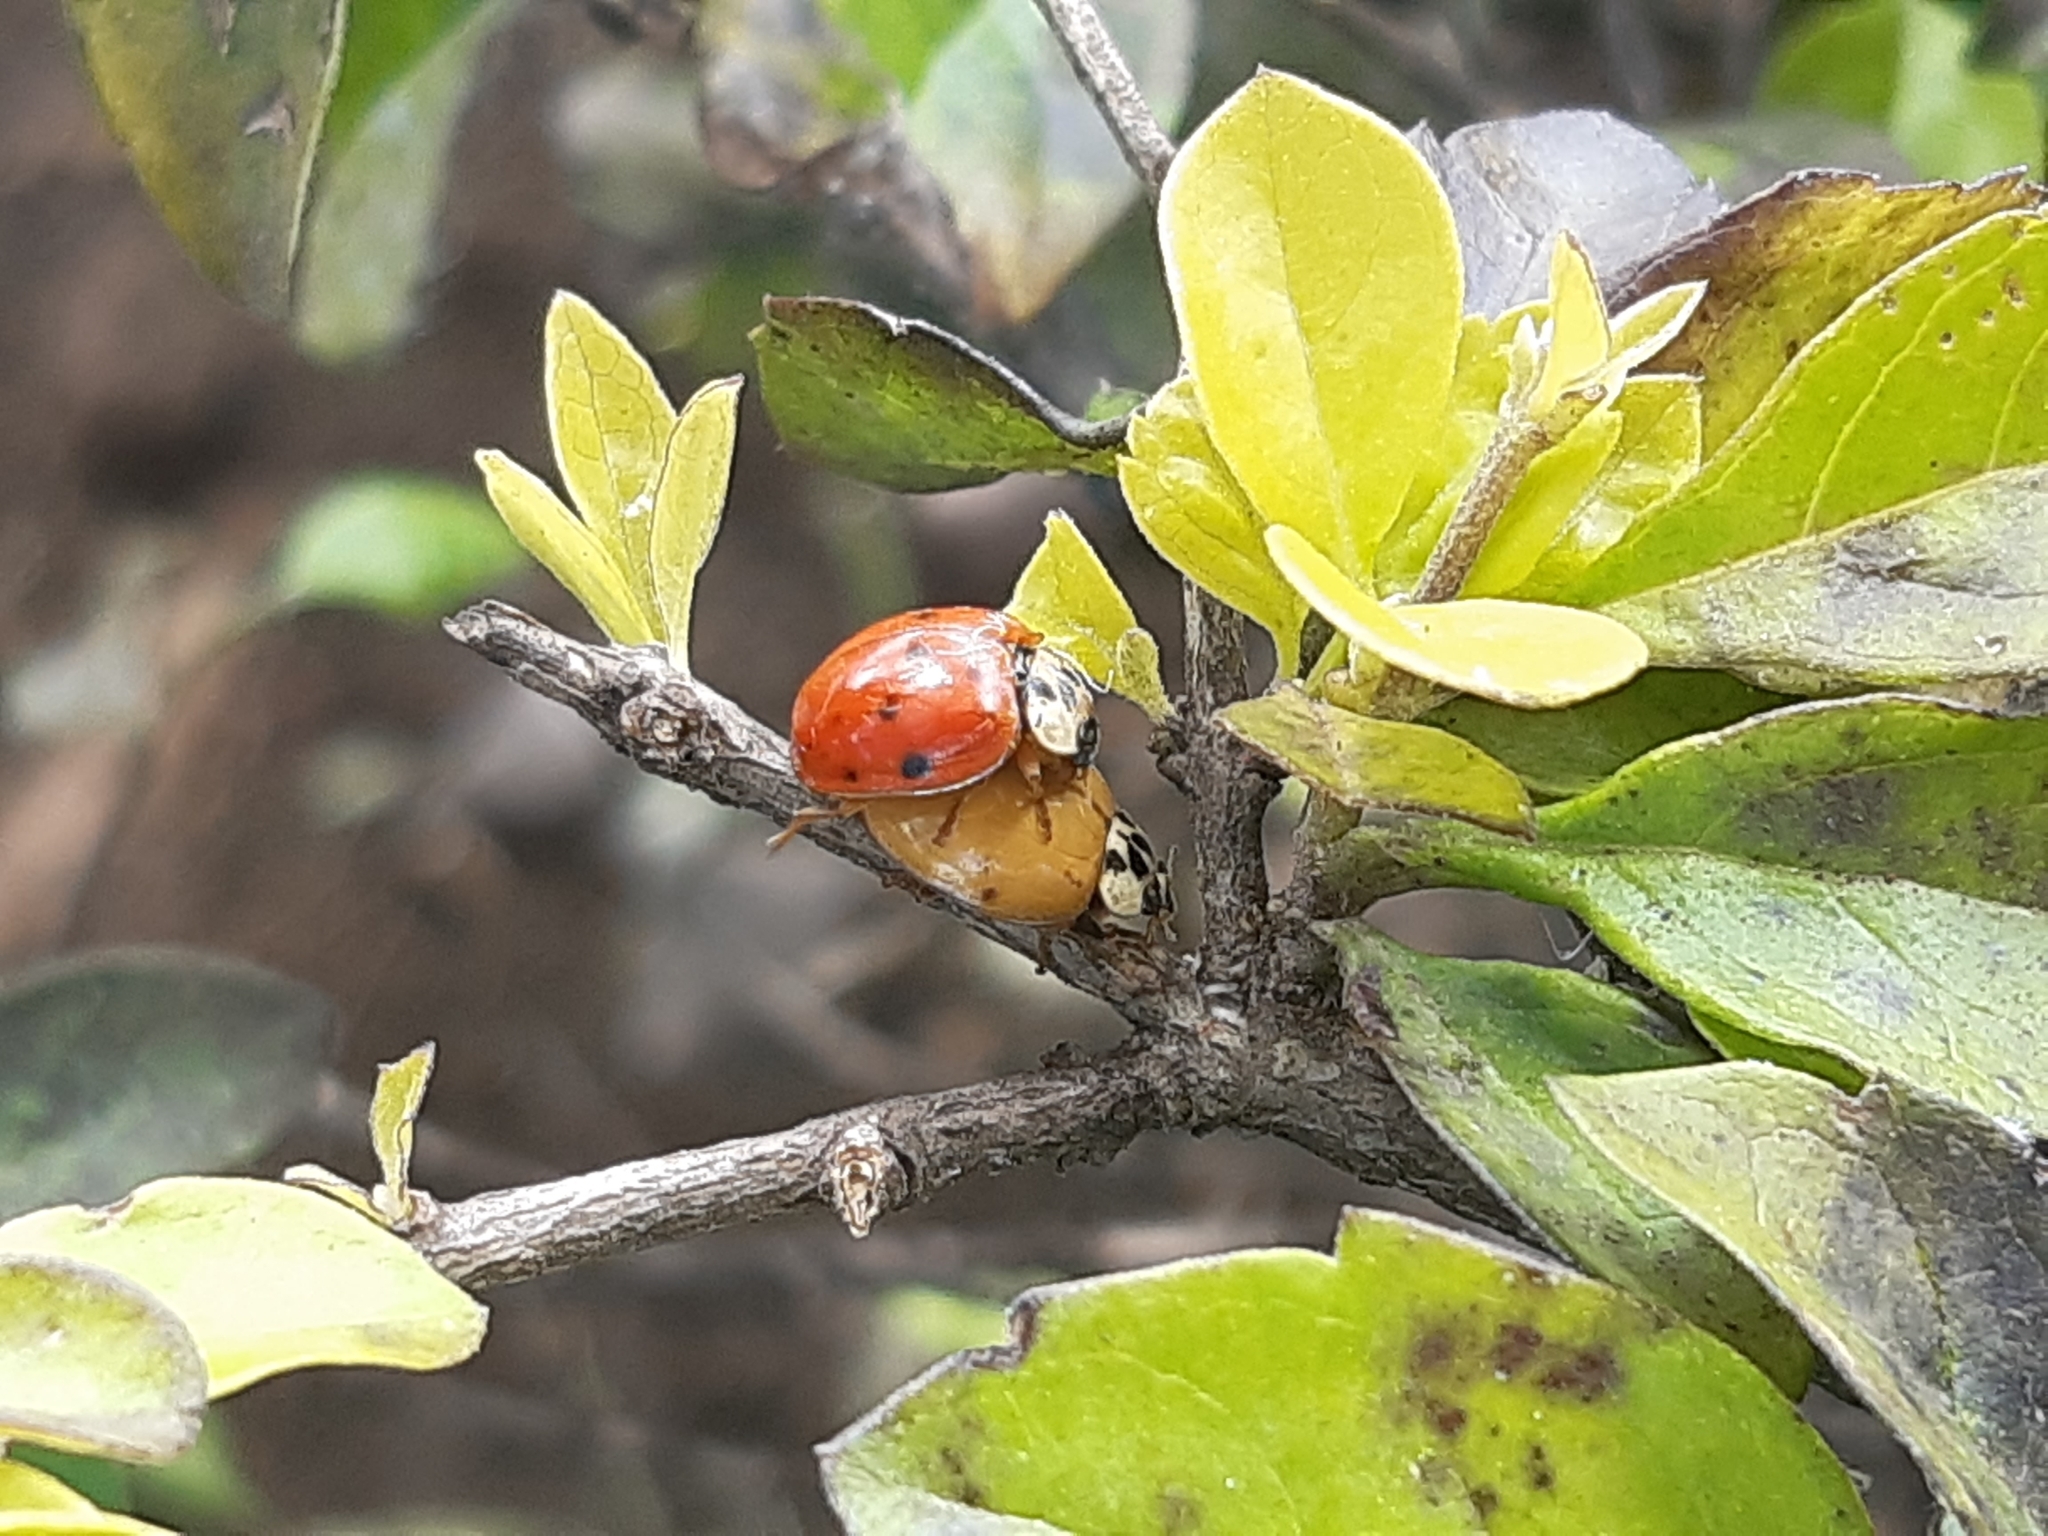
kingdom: Animalia
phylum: Arthropoda
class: Insecta
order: Coleoptera
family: Coccinellidae
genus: Harmonia
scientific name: Harmonia axyridis
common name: Harlequin ladybird
